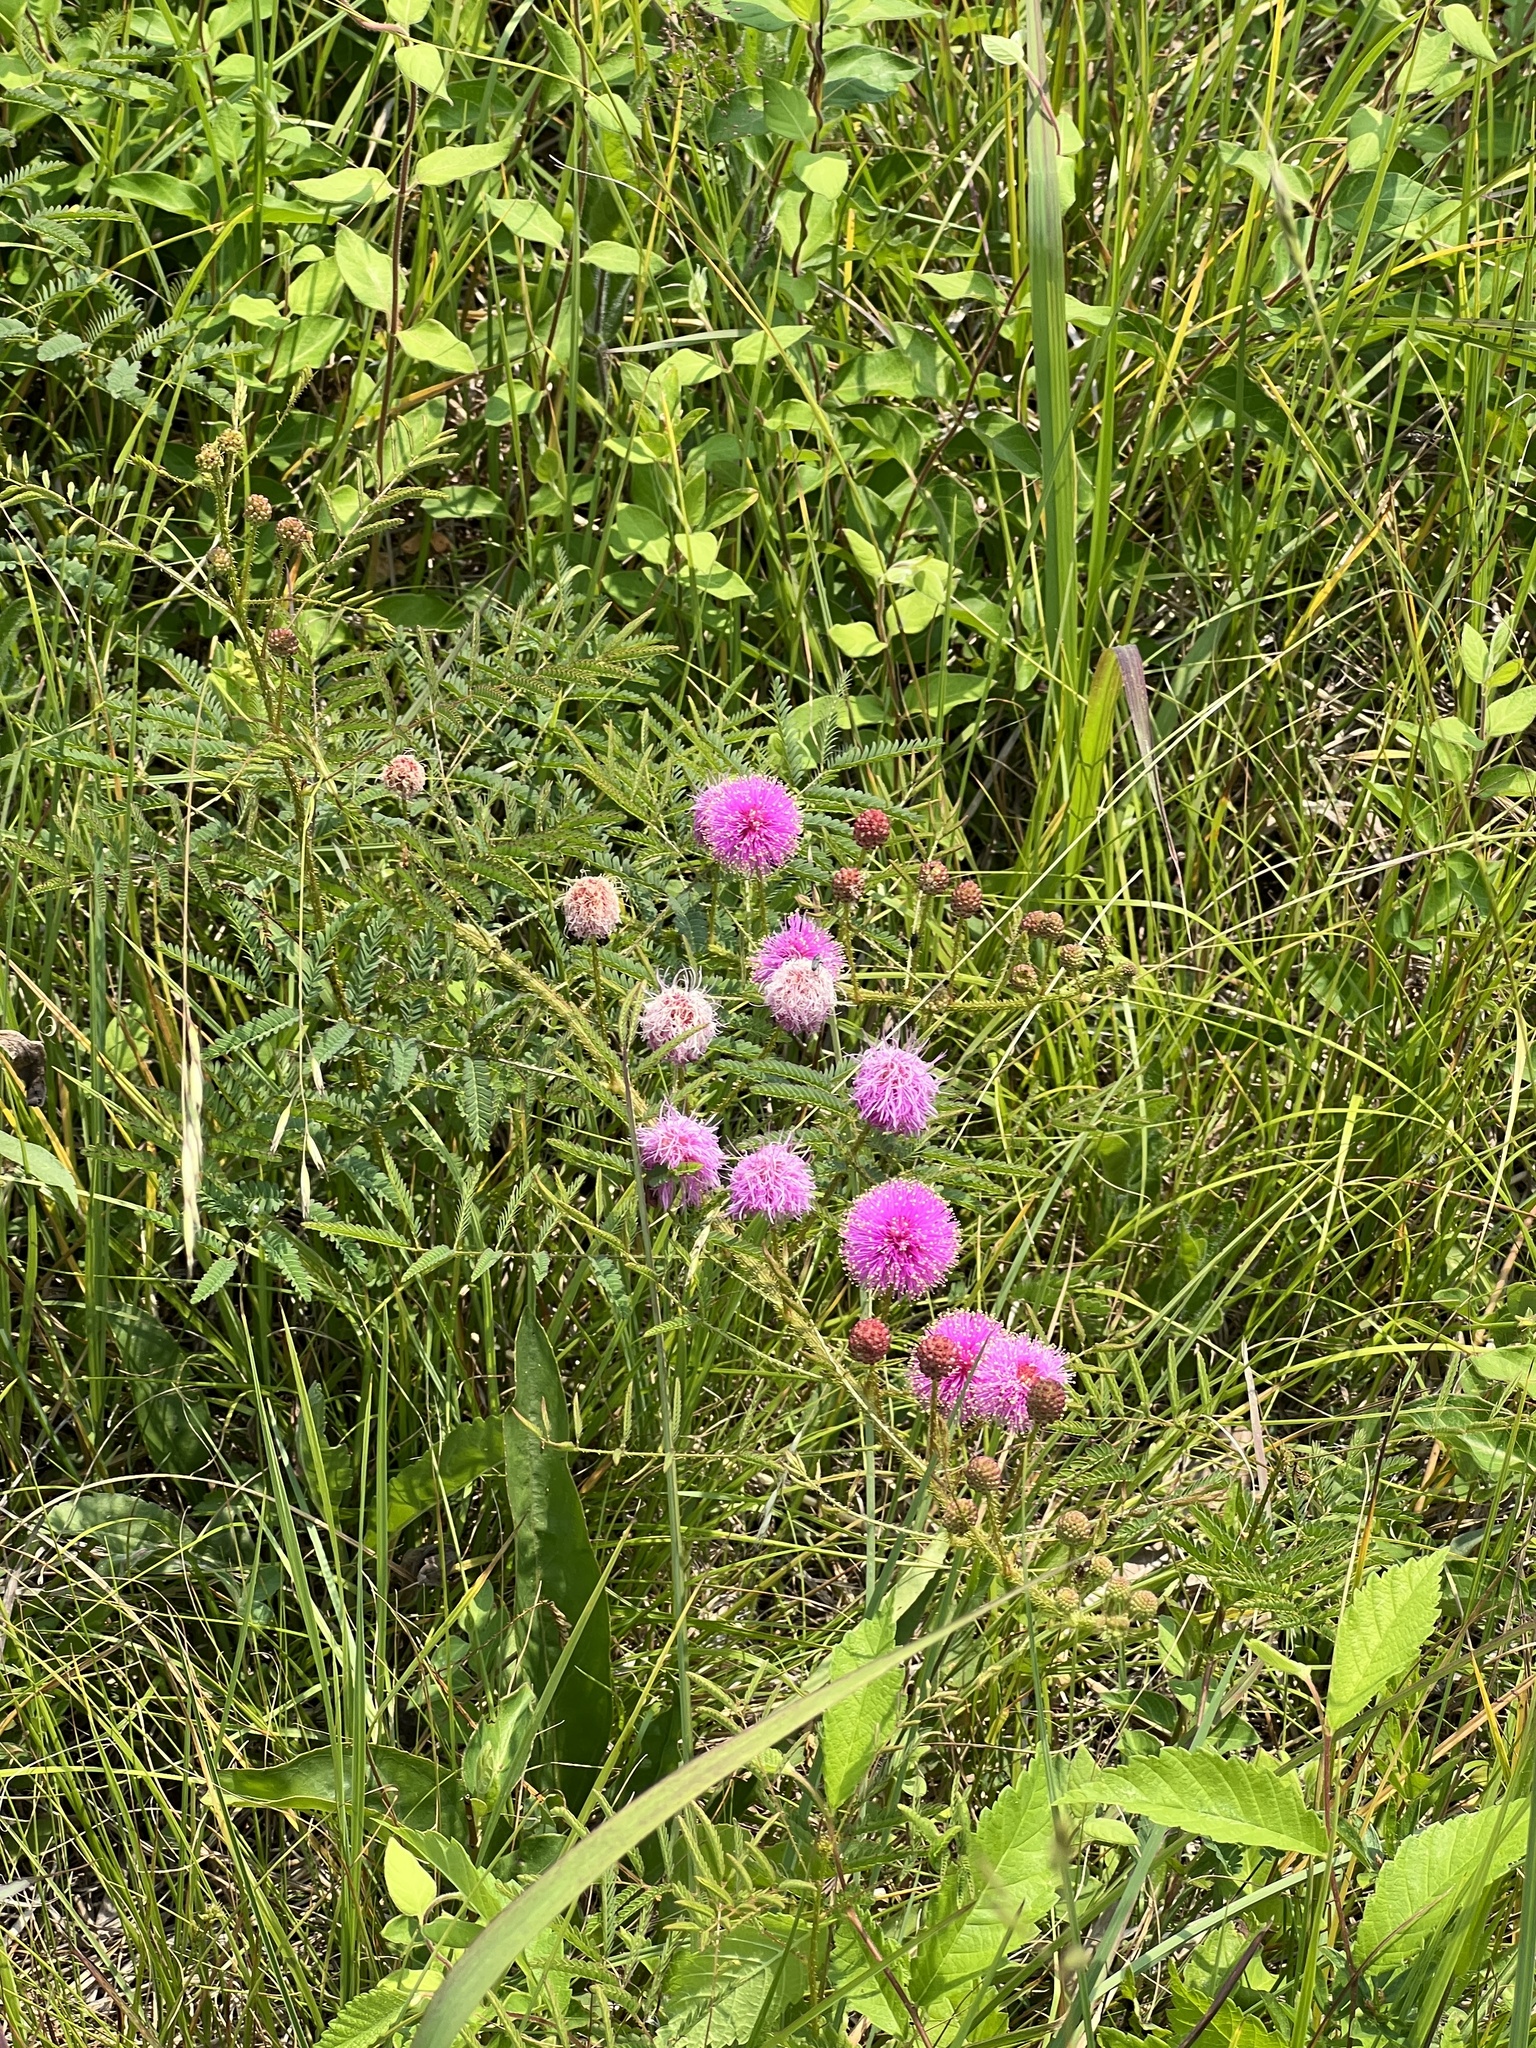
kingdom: Plantae
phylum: Tracheophyta
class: Magnoliopsida
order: Fabales
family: Fabaceae
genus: Mimosa
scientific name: Mimosa quadrivalvis
